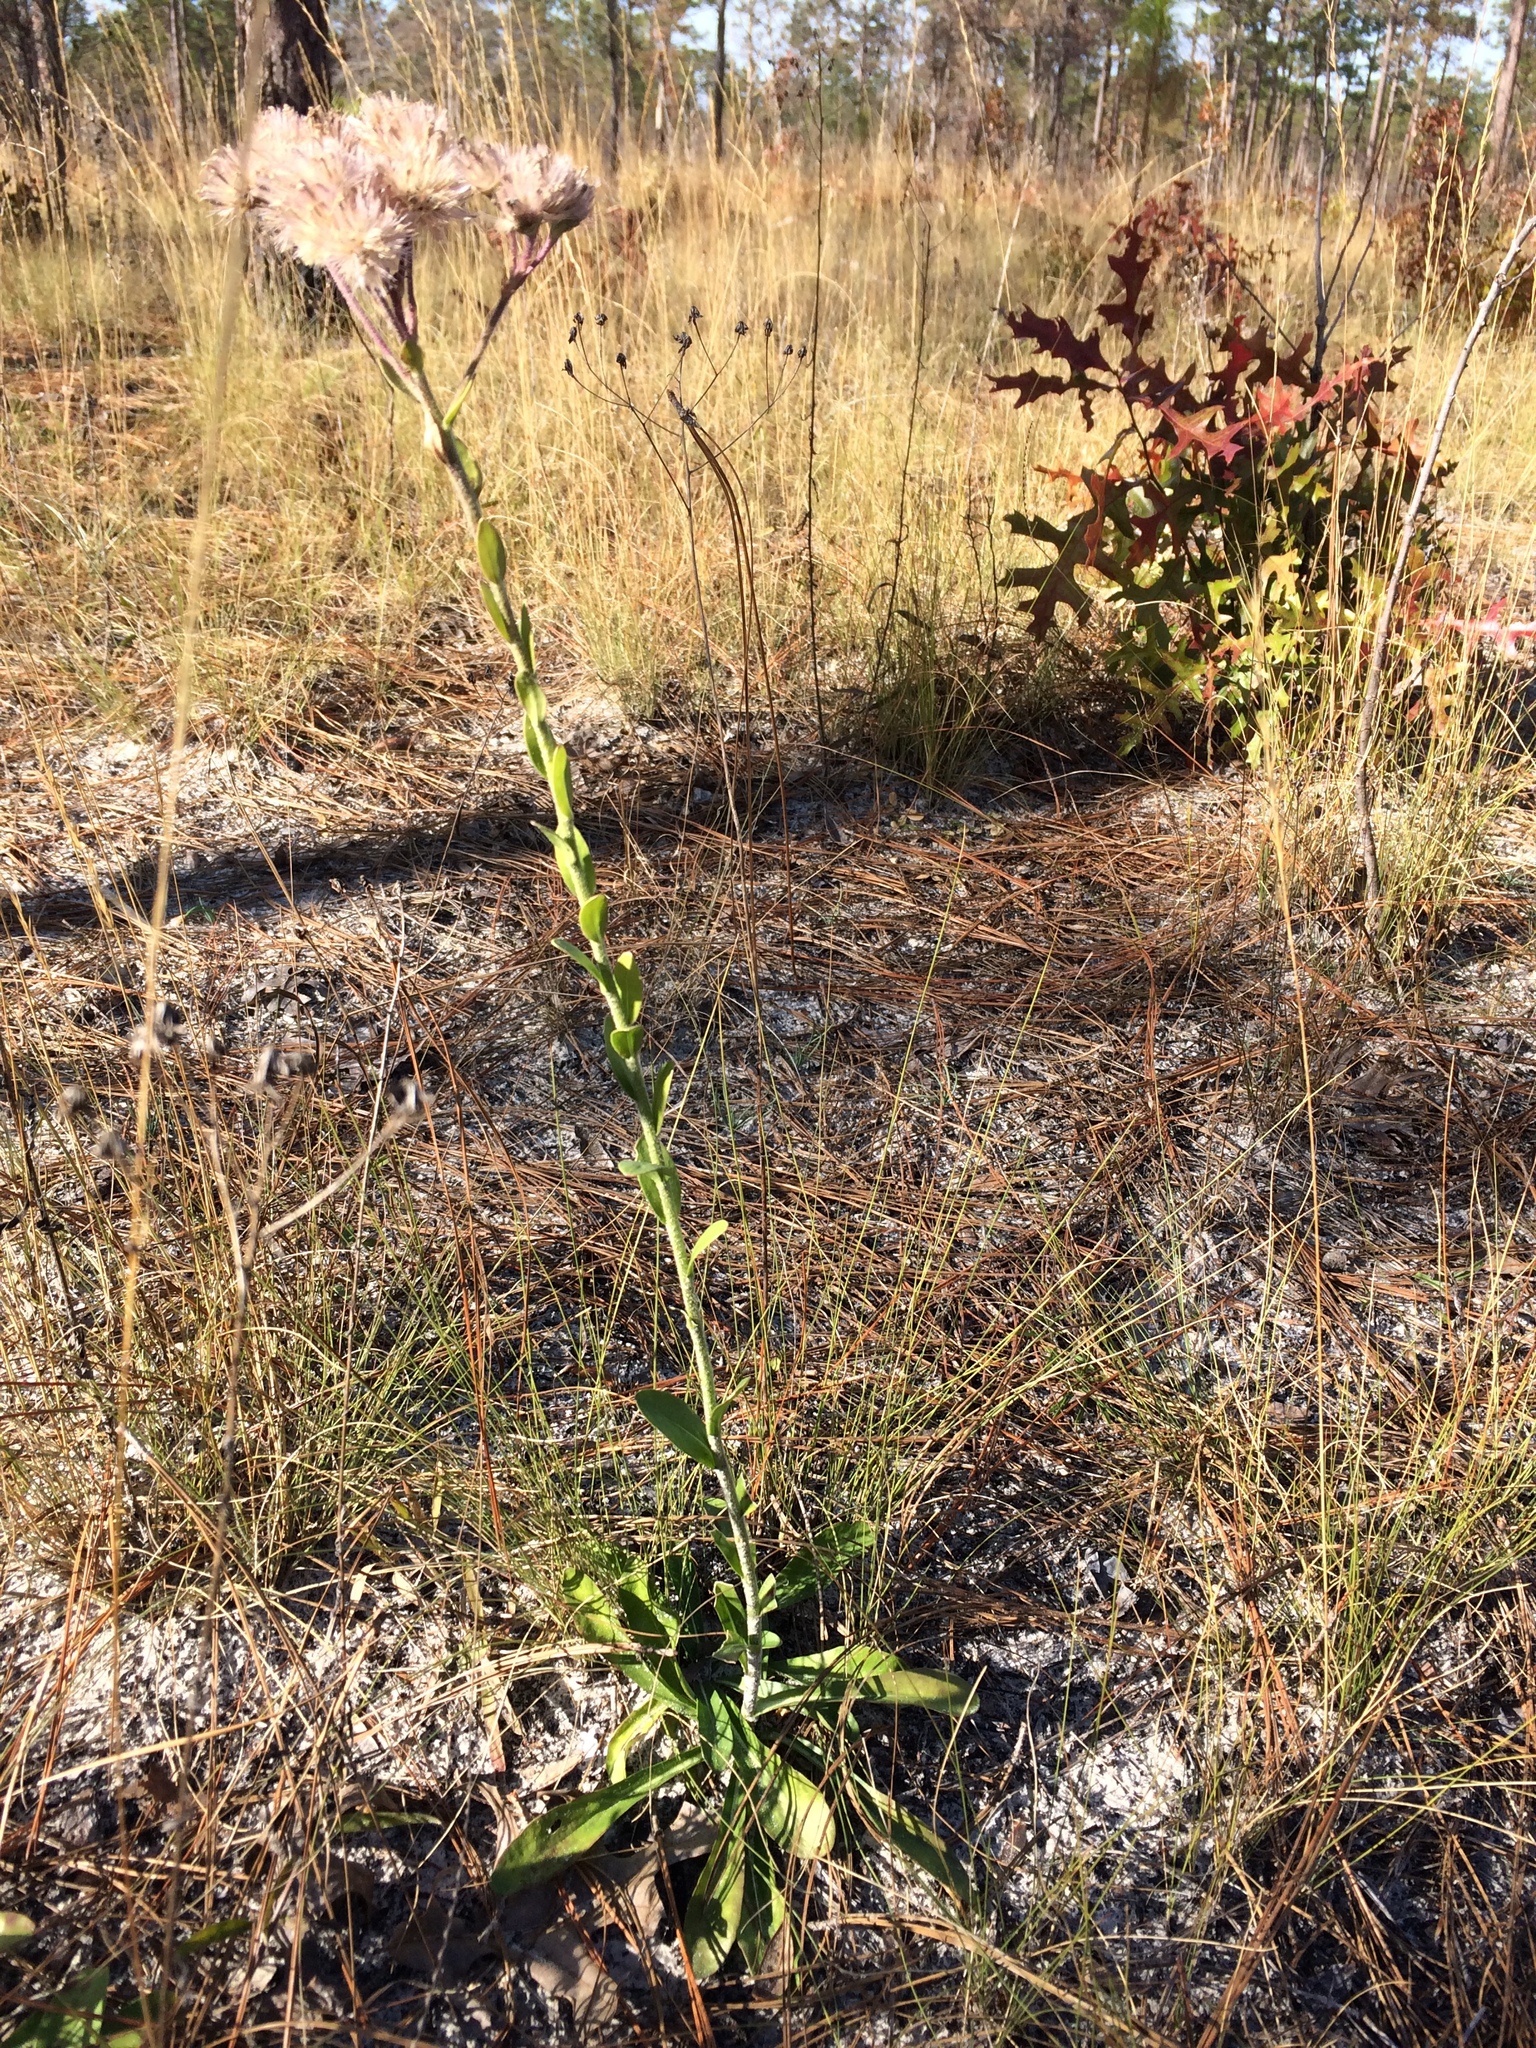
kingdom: Plantae
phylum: Tracheophyta
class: Magnoliopsida
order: Asterales
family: Asteraceae
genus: Carphephorus
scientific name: Carphephorus corymbosus
